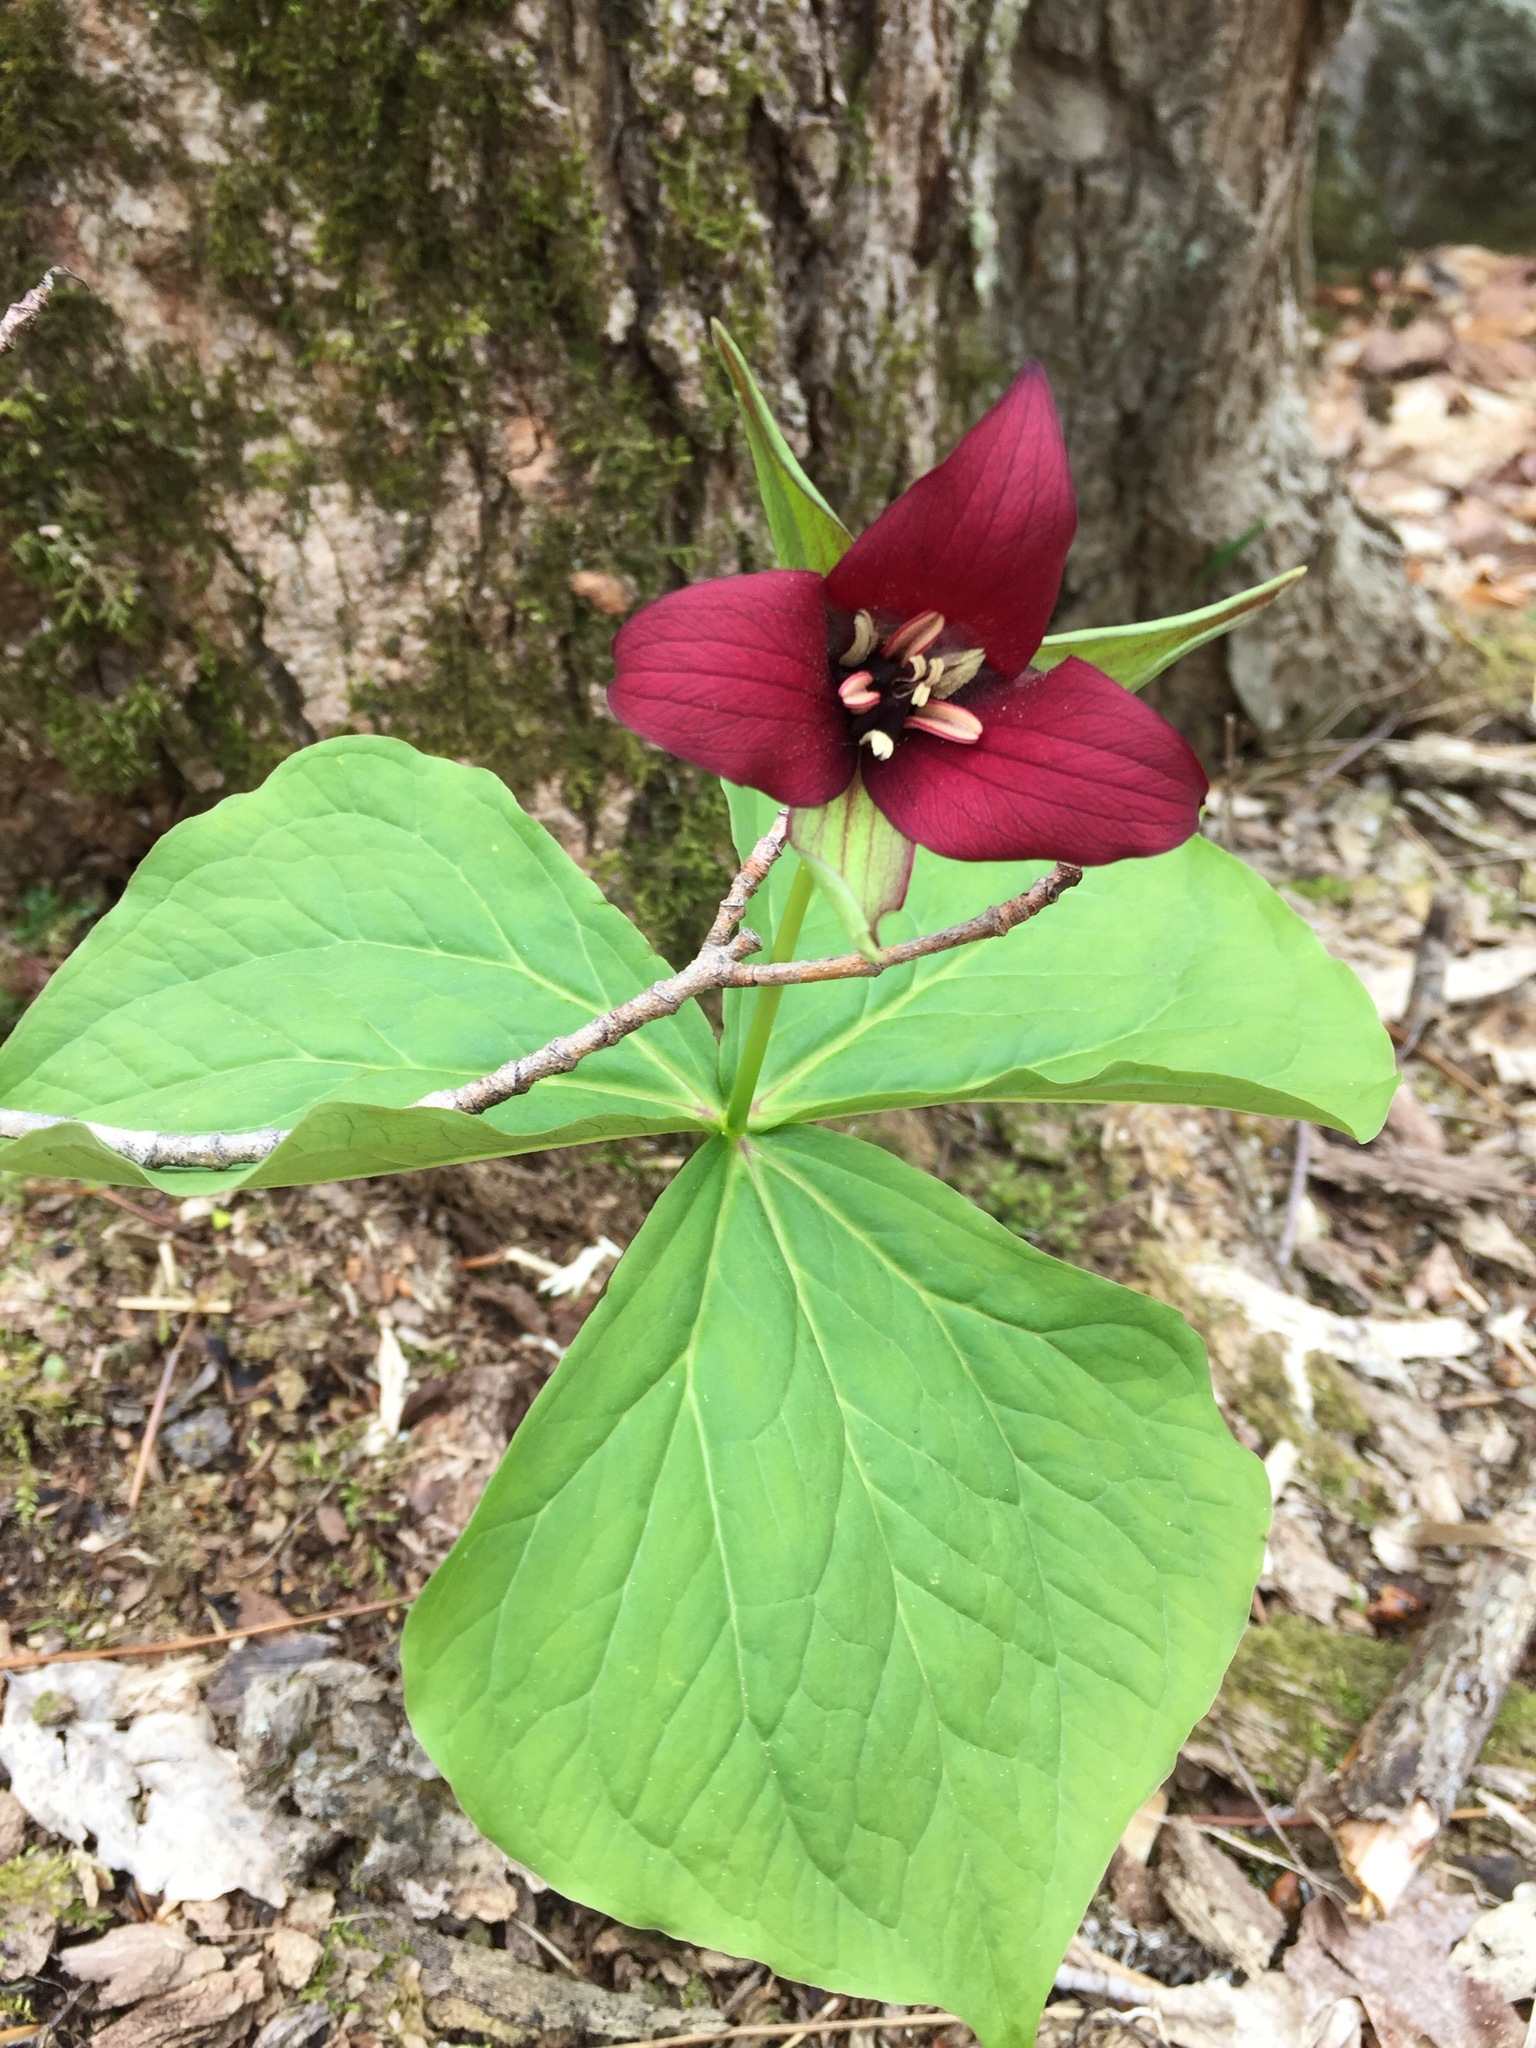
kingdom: Plantae
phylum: Tracheophyta
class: Liliopsida
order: Liliales
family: Melanthiaceae
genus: Trillium
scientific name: Trillium erectum
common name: Purple trillium
